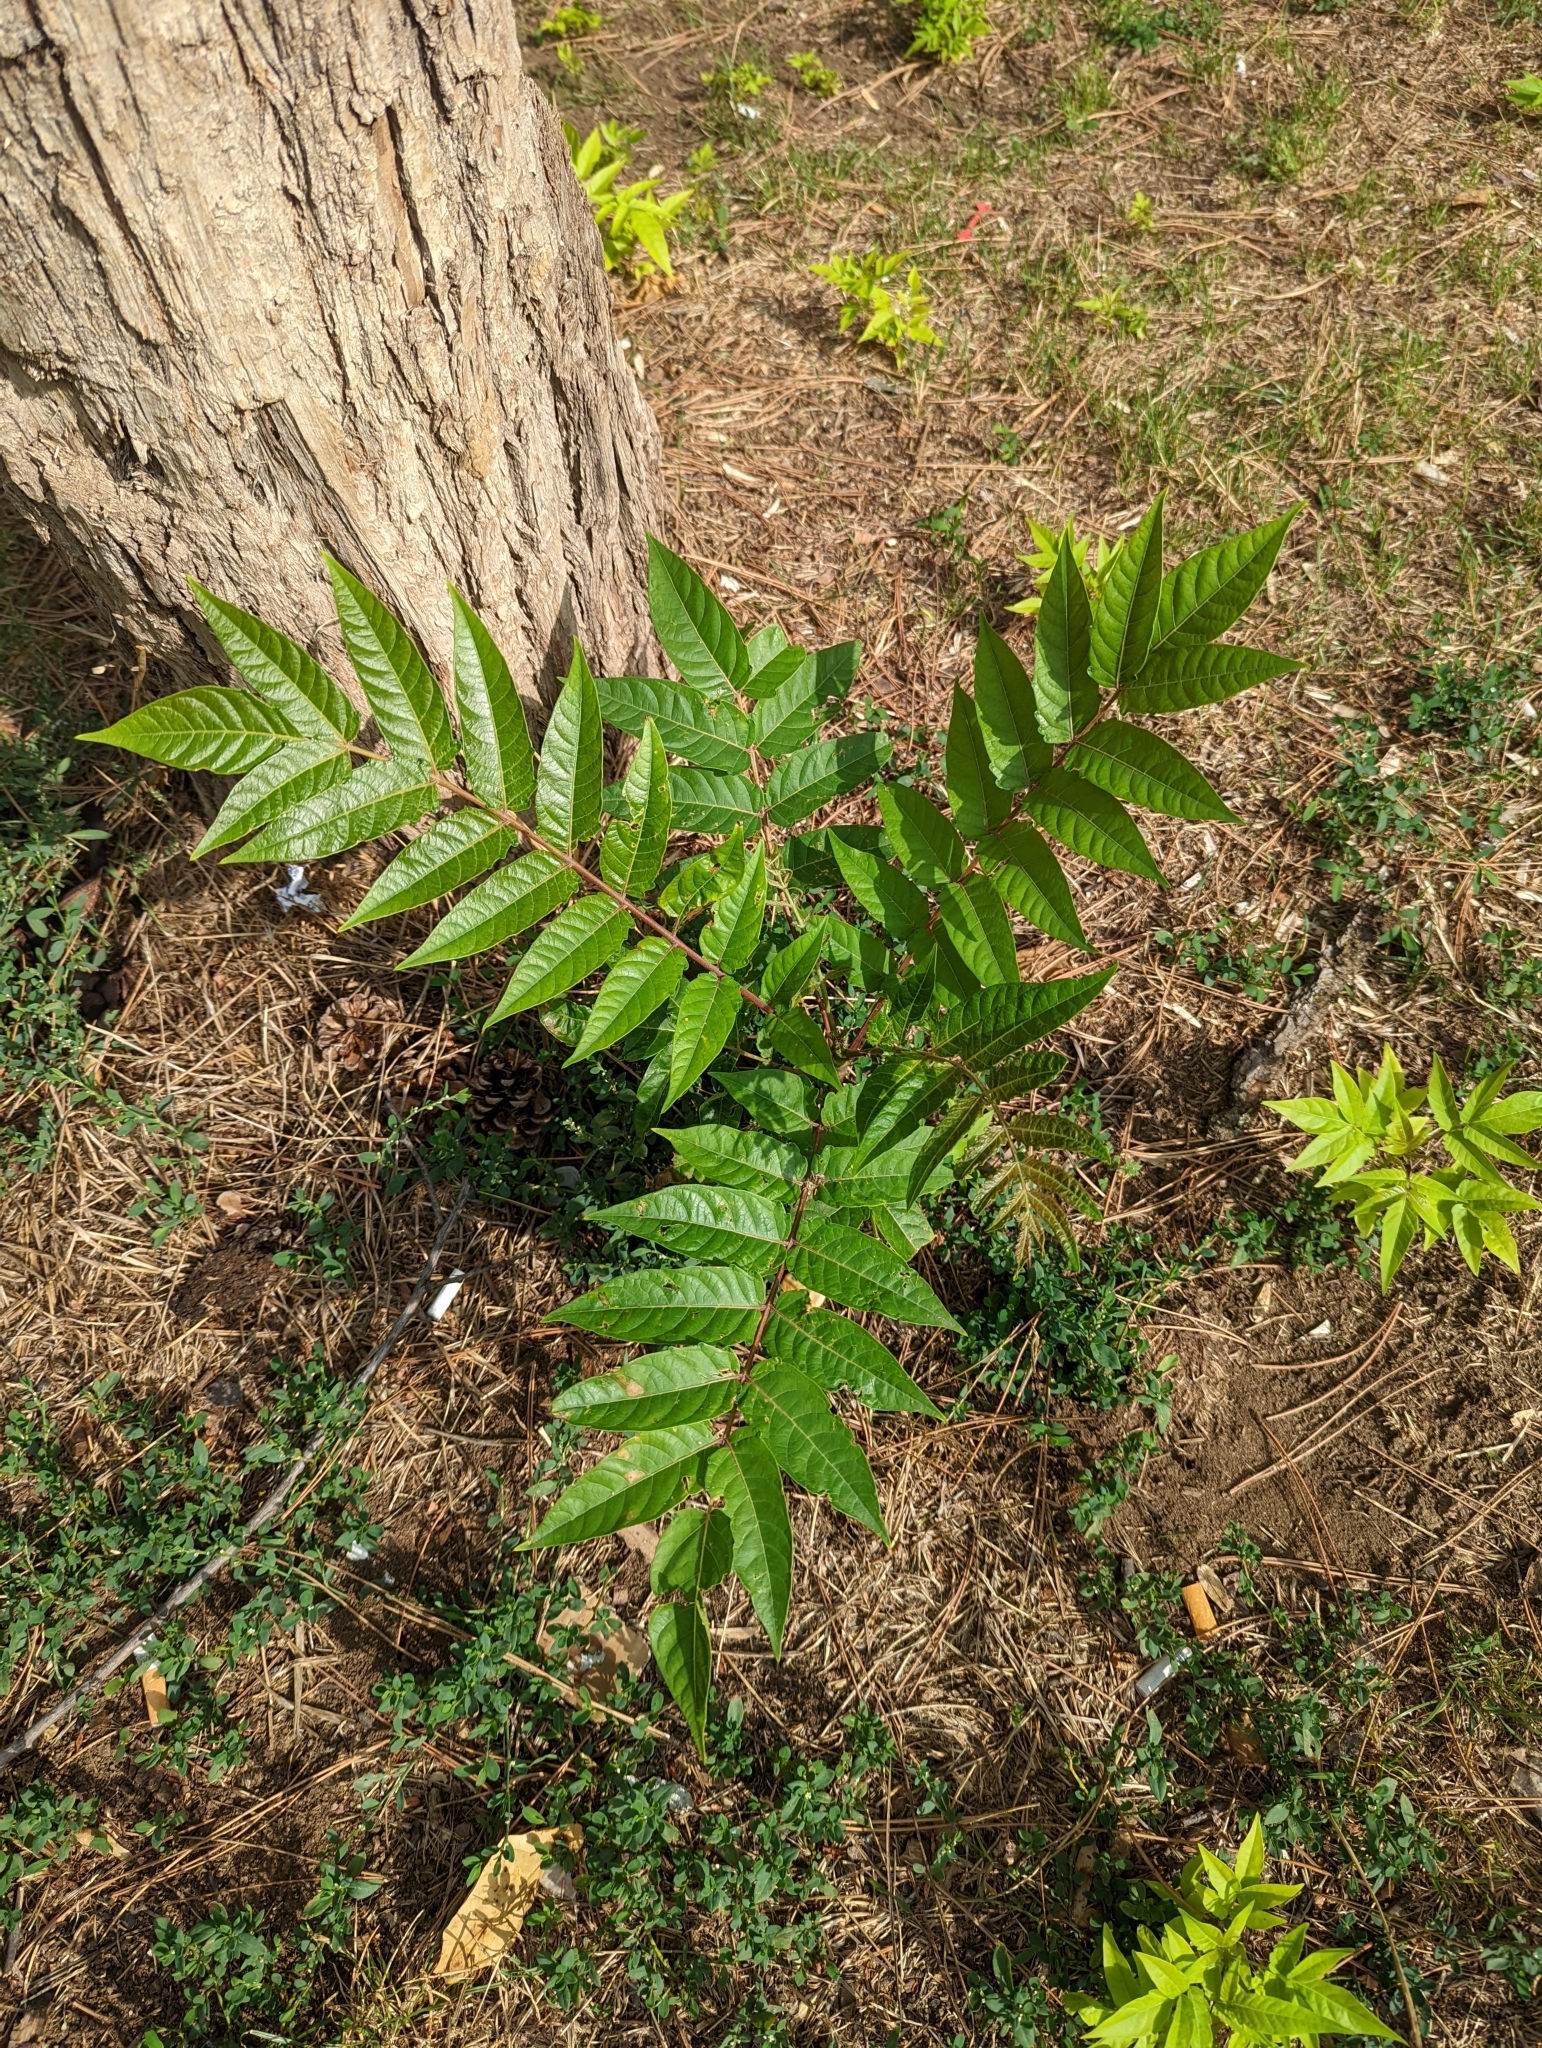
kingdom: Plantae
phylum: Tracheophyta
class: Magnoliopsida
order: Sapindales
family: Simaroubaceae
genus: Ailanthus
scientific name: Ailanthus altissima
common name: Tree-of-heaven
